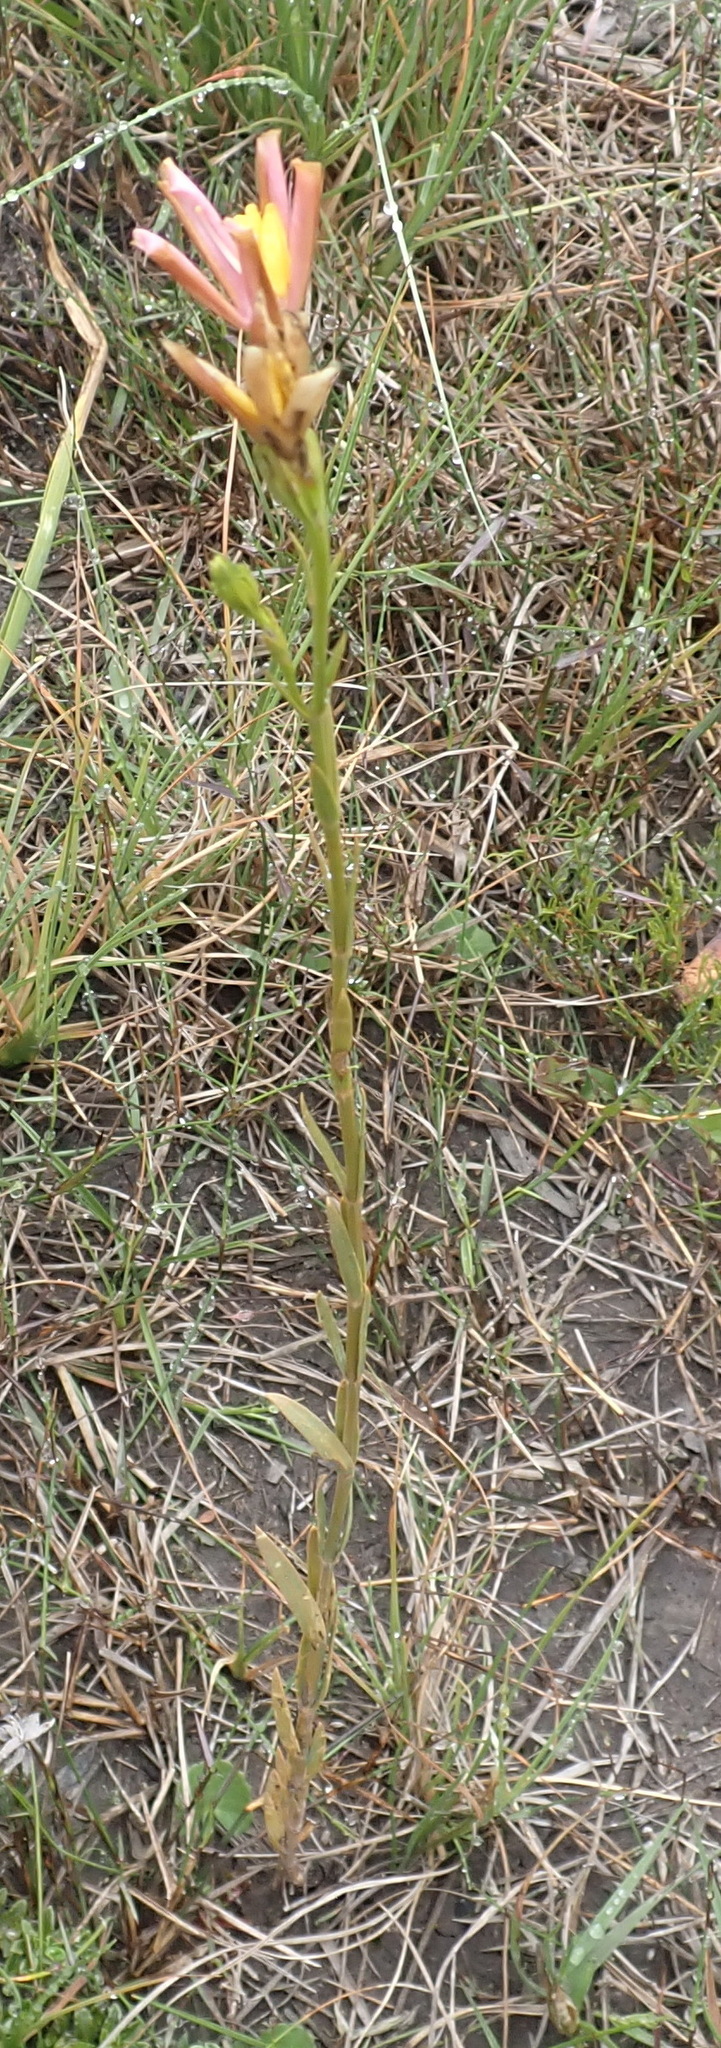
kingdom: Plantae
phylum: Tracheophyta
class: Liliopsida
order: Asparagales
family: Iridaceae
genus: Moraea
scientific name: Moraea ramosissima
